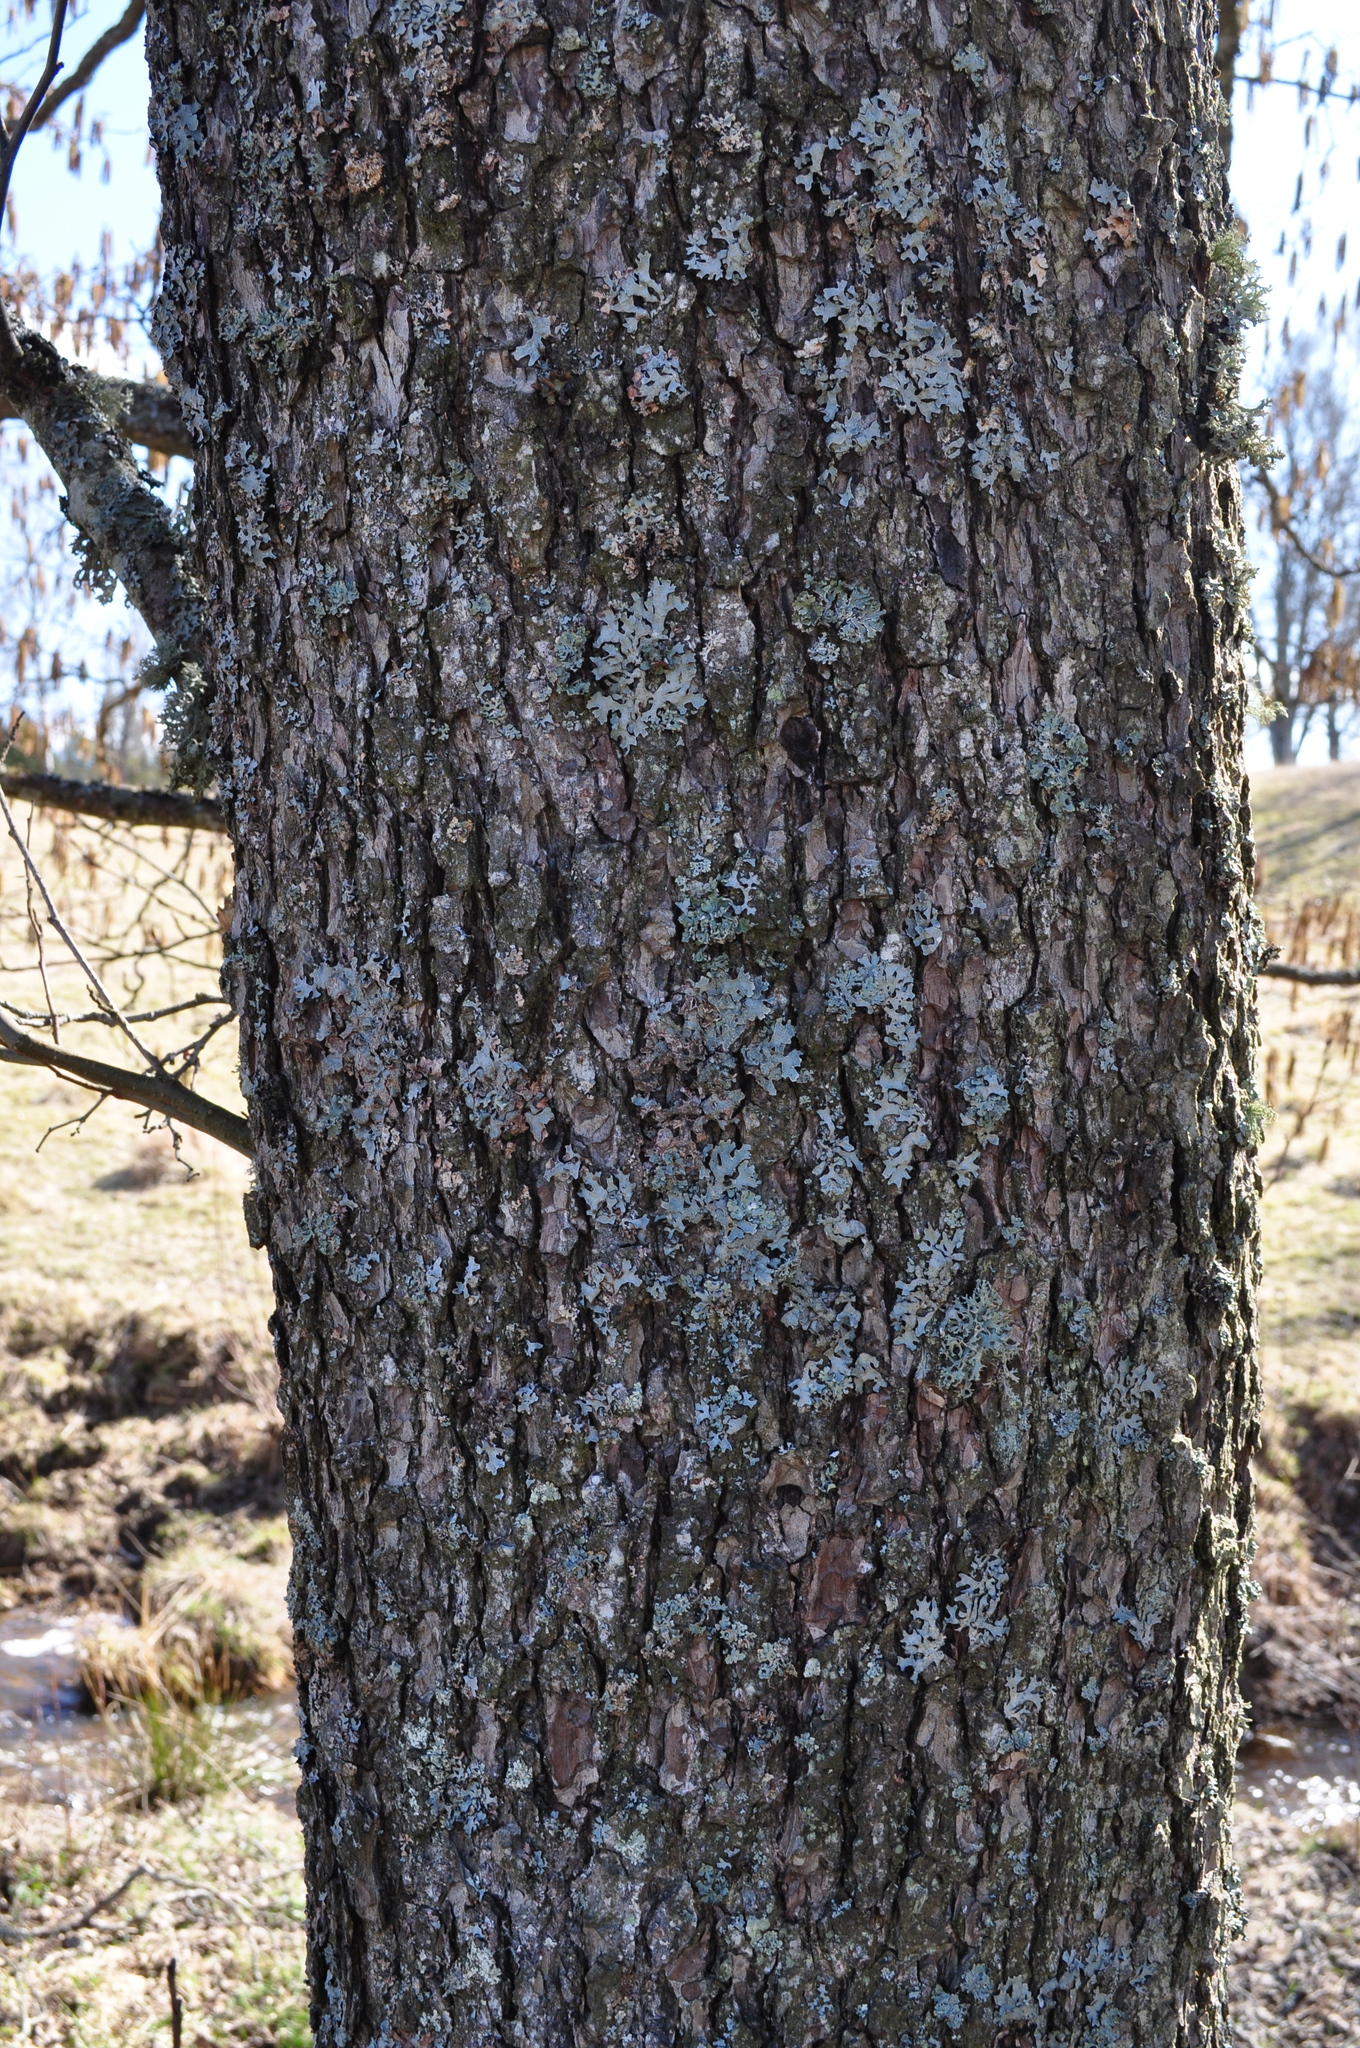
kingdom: Plantae
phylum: Tracheophyta
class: Magnoliopsida
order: Fagales
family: Betulaceae
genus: Alnus
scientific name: Alnus glutinosa
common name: Black alder
